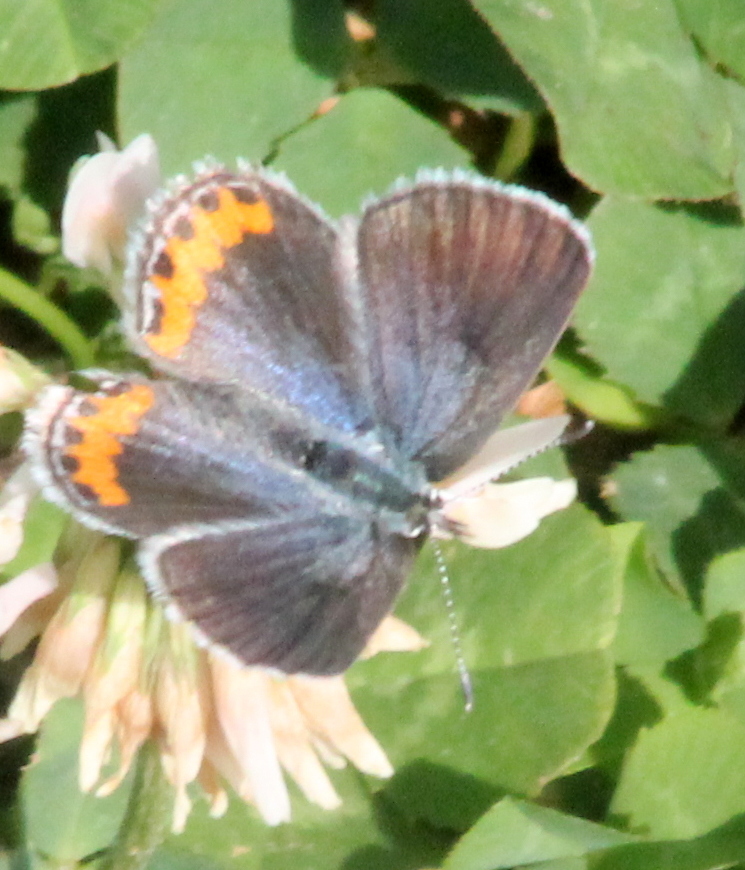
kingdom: Animalia
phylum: Arthropoda
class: Insecta
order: Lepidoptera
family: Lycaenidae
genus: Icaricia
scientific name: Icaricia lupini
